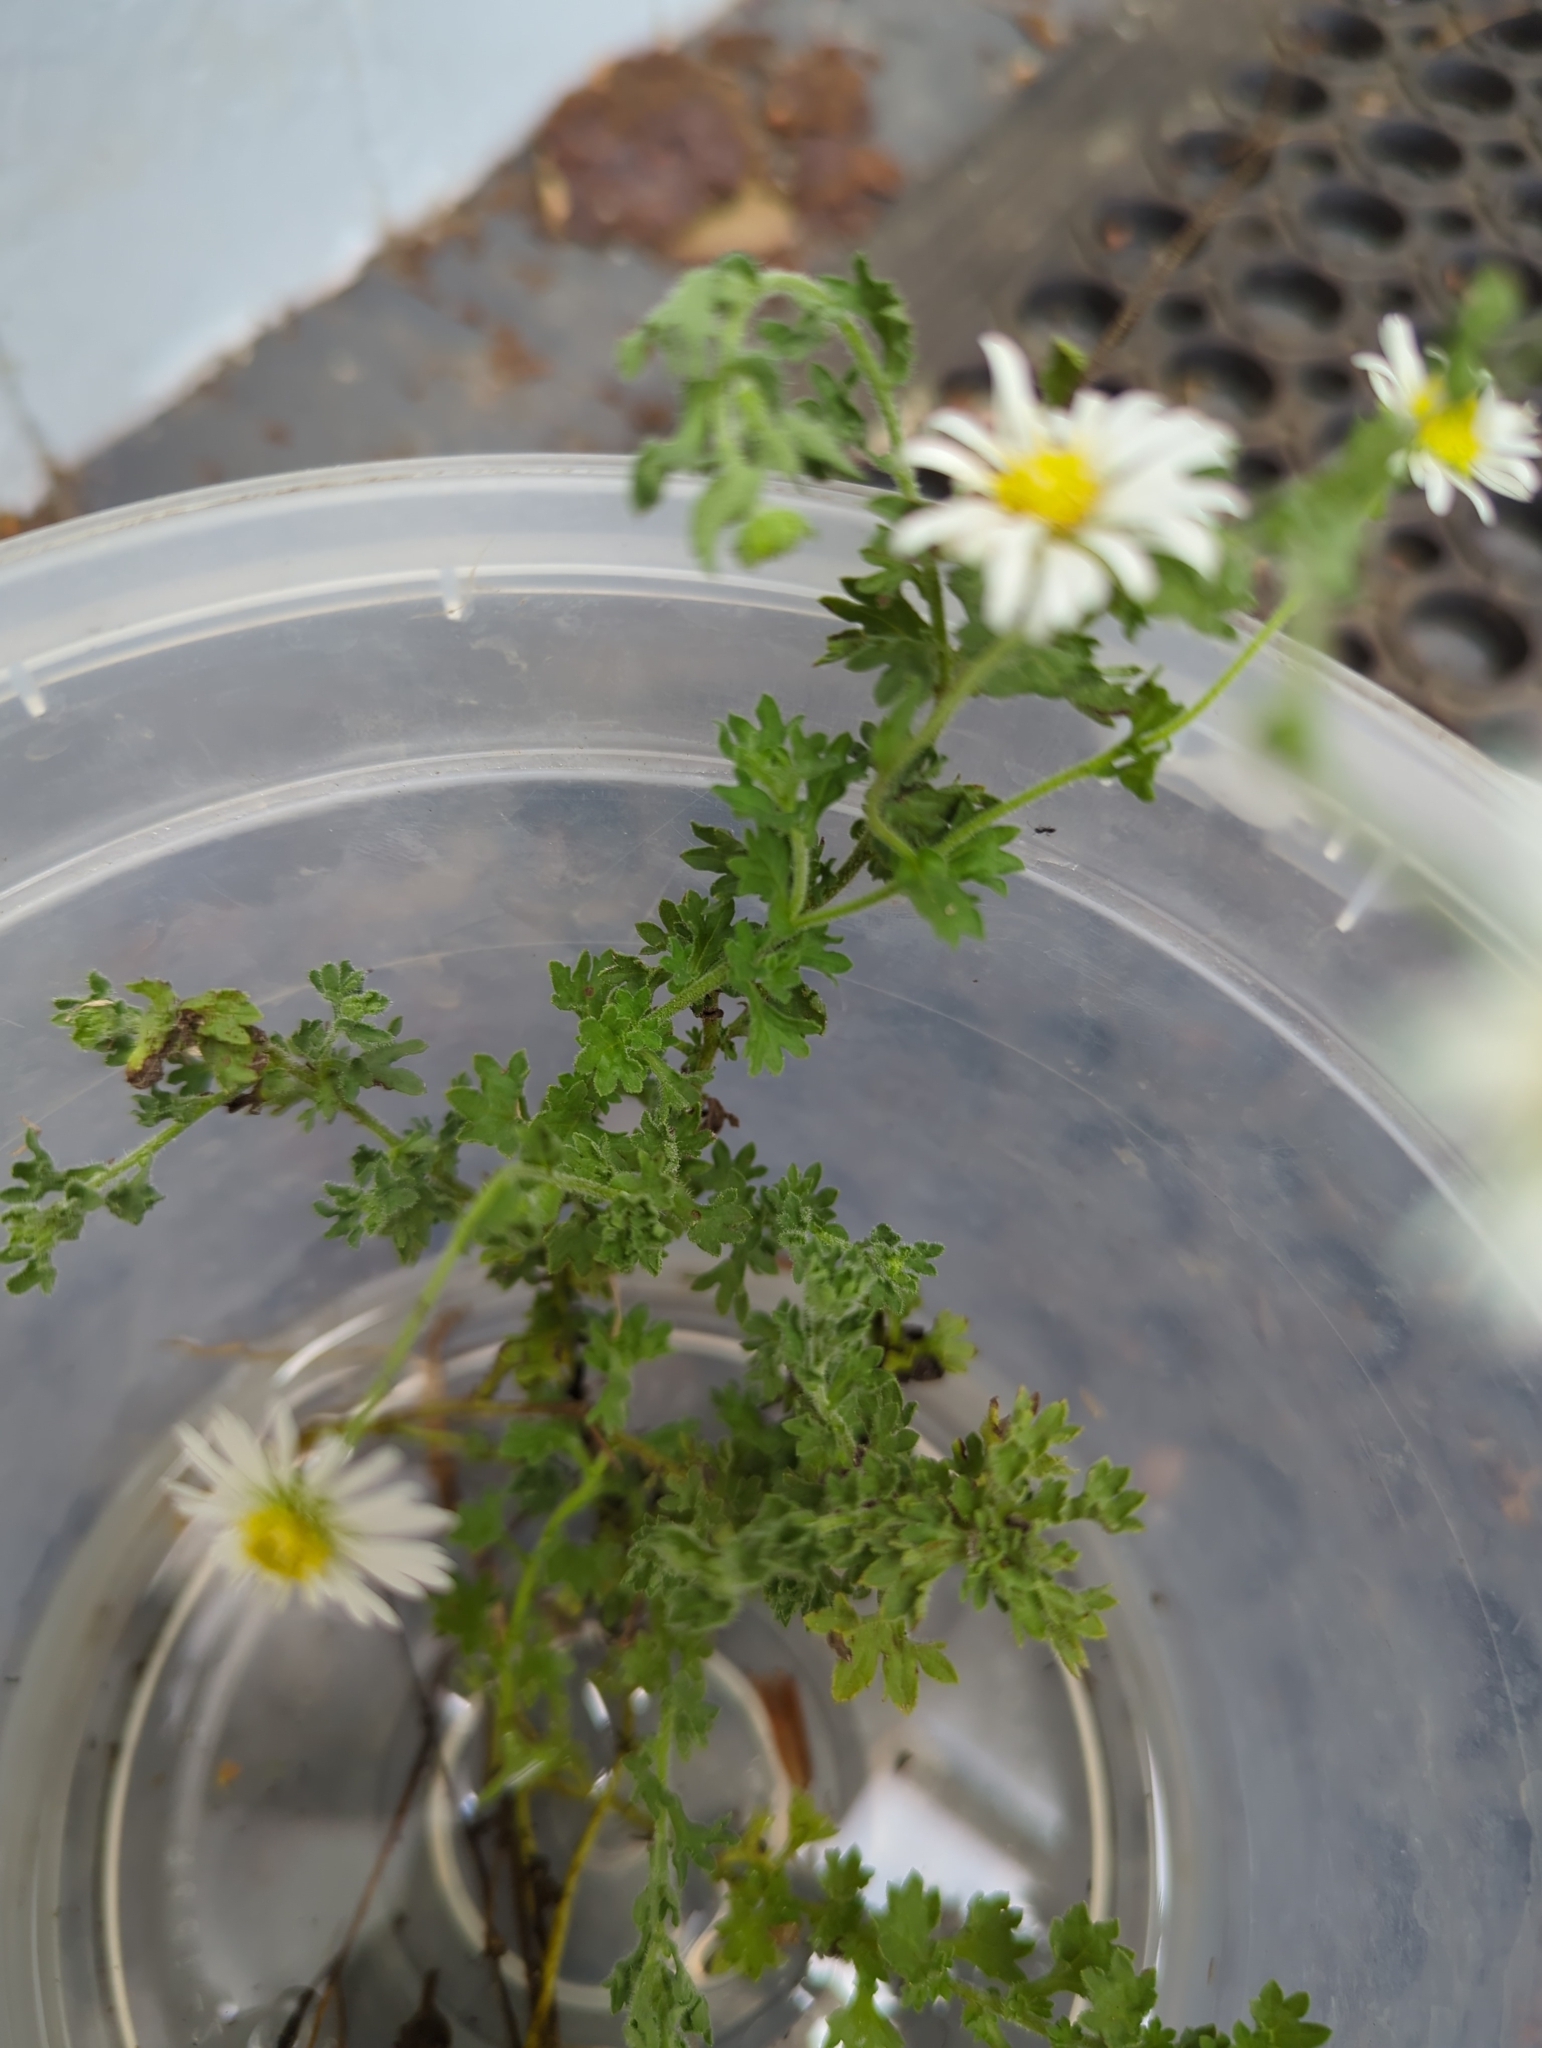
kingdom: Plantae
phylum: Tracheophyta
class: Magnoliopsida
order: Asterales
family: Asteraceae
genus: Calotis
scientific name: Calotis cuneifolia
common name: Bur-daisy
